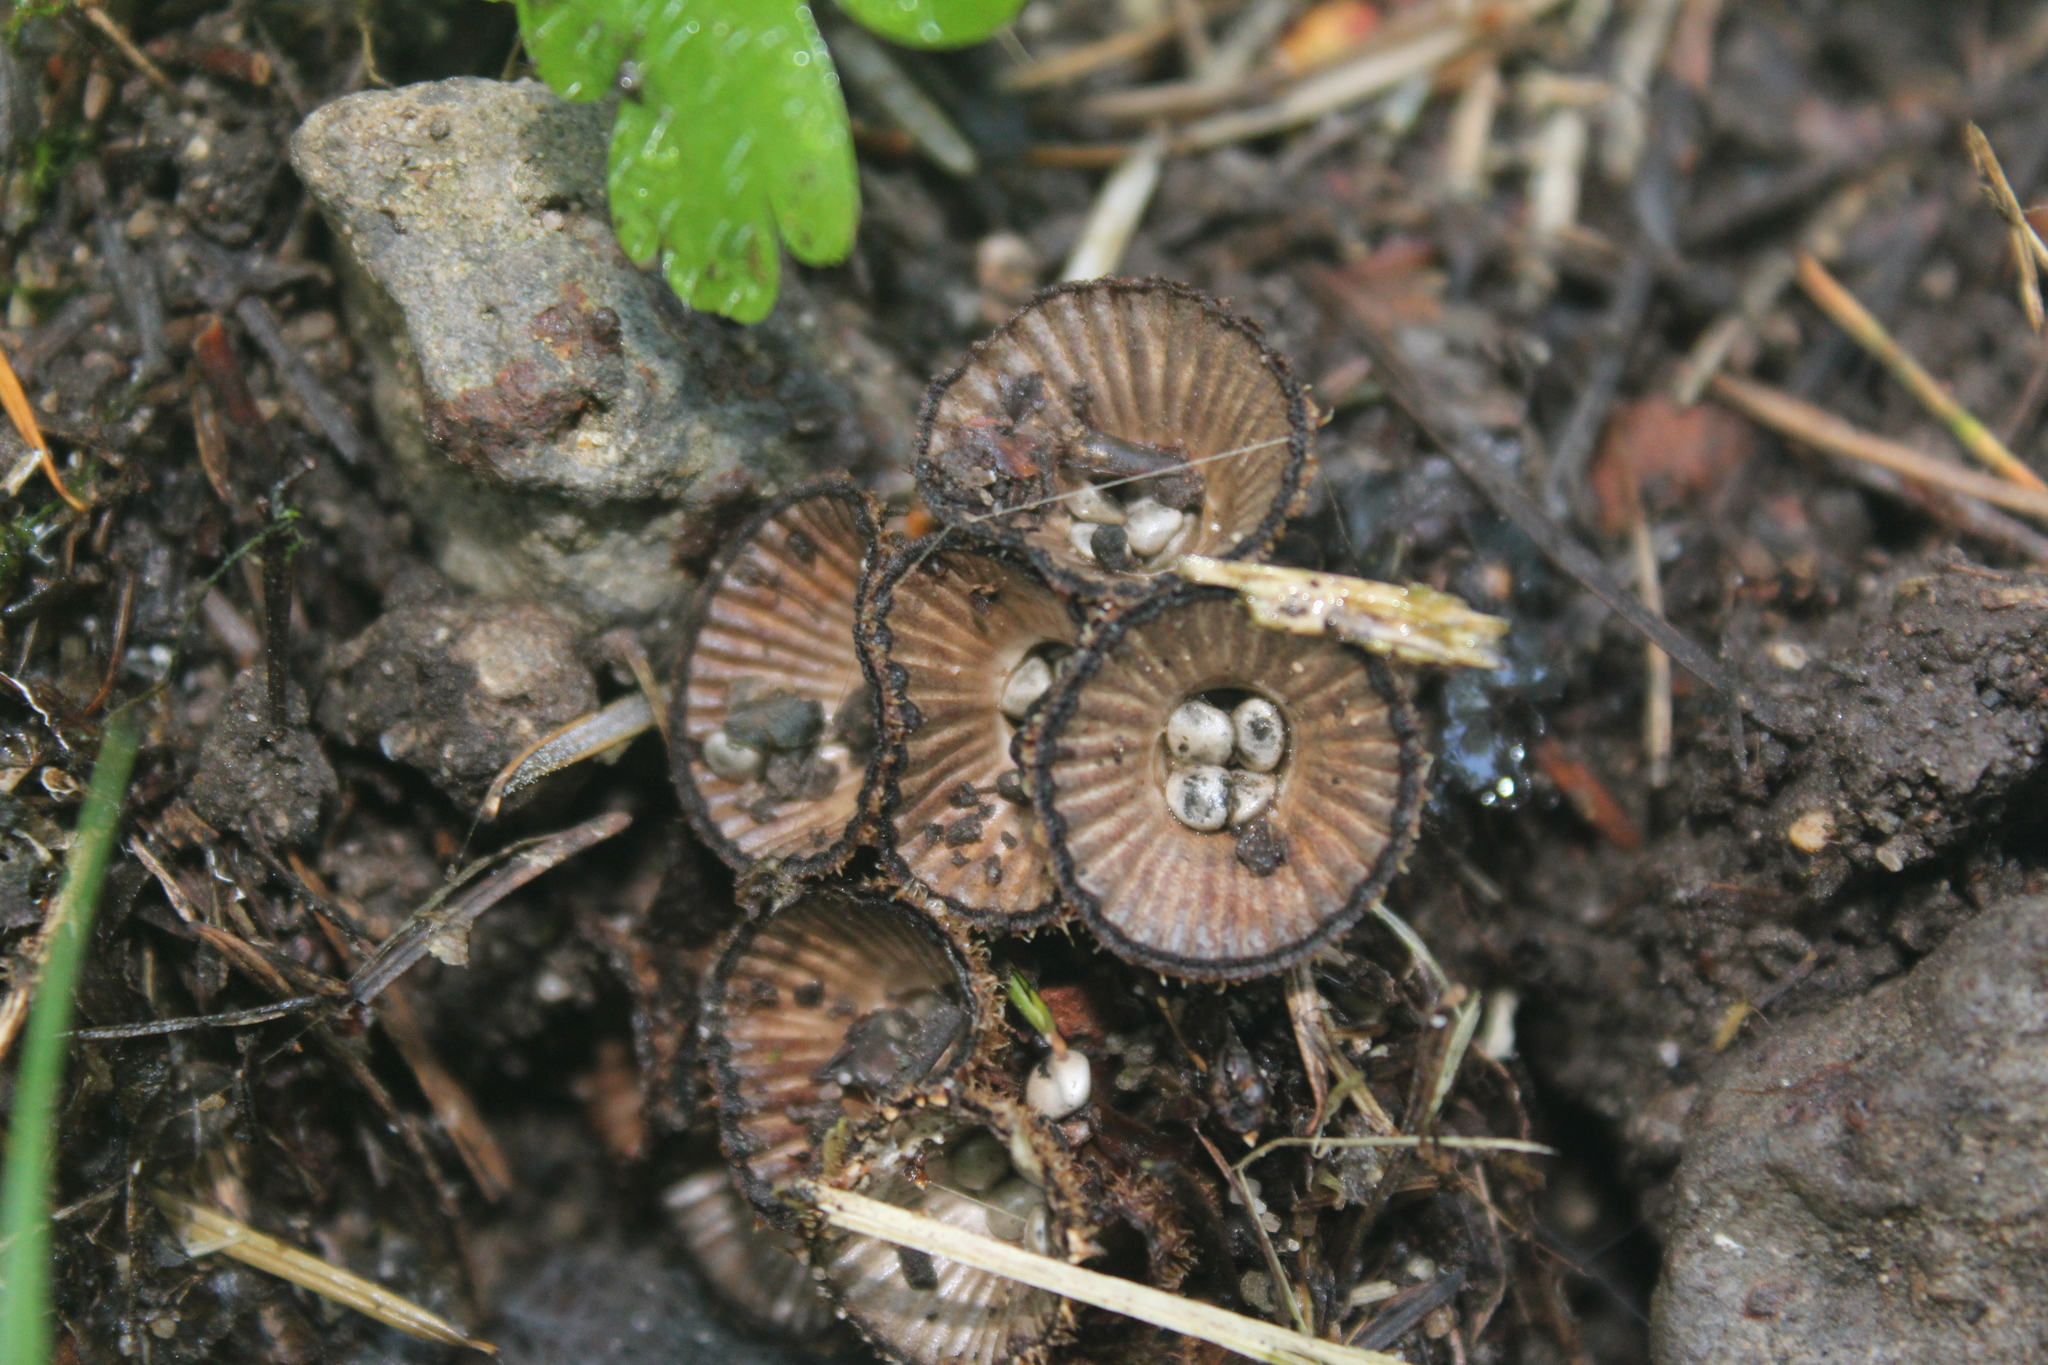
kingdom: Fungi
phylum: Basidiomycota
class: Agaricomycetes
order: Agaricales
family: Agaricaceae
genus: Cyathus
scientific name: Cyathus striatus
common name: Fluted bird's nest
